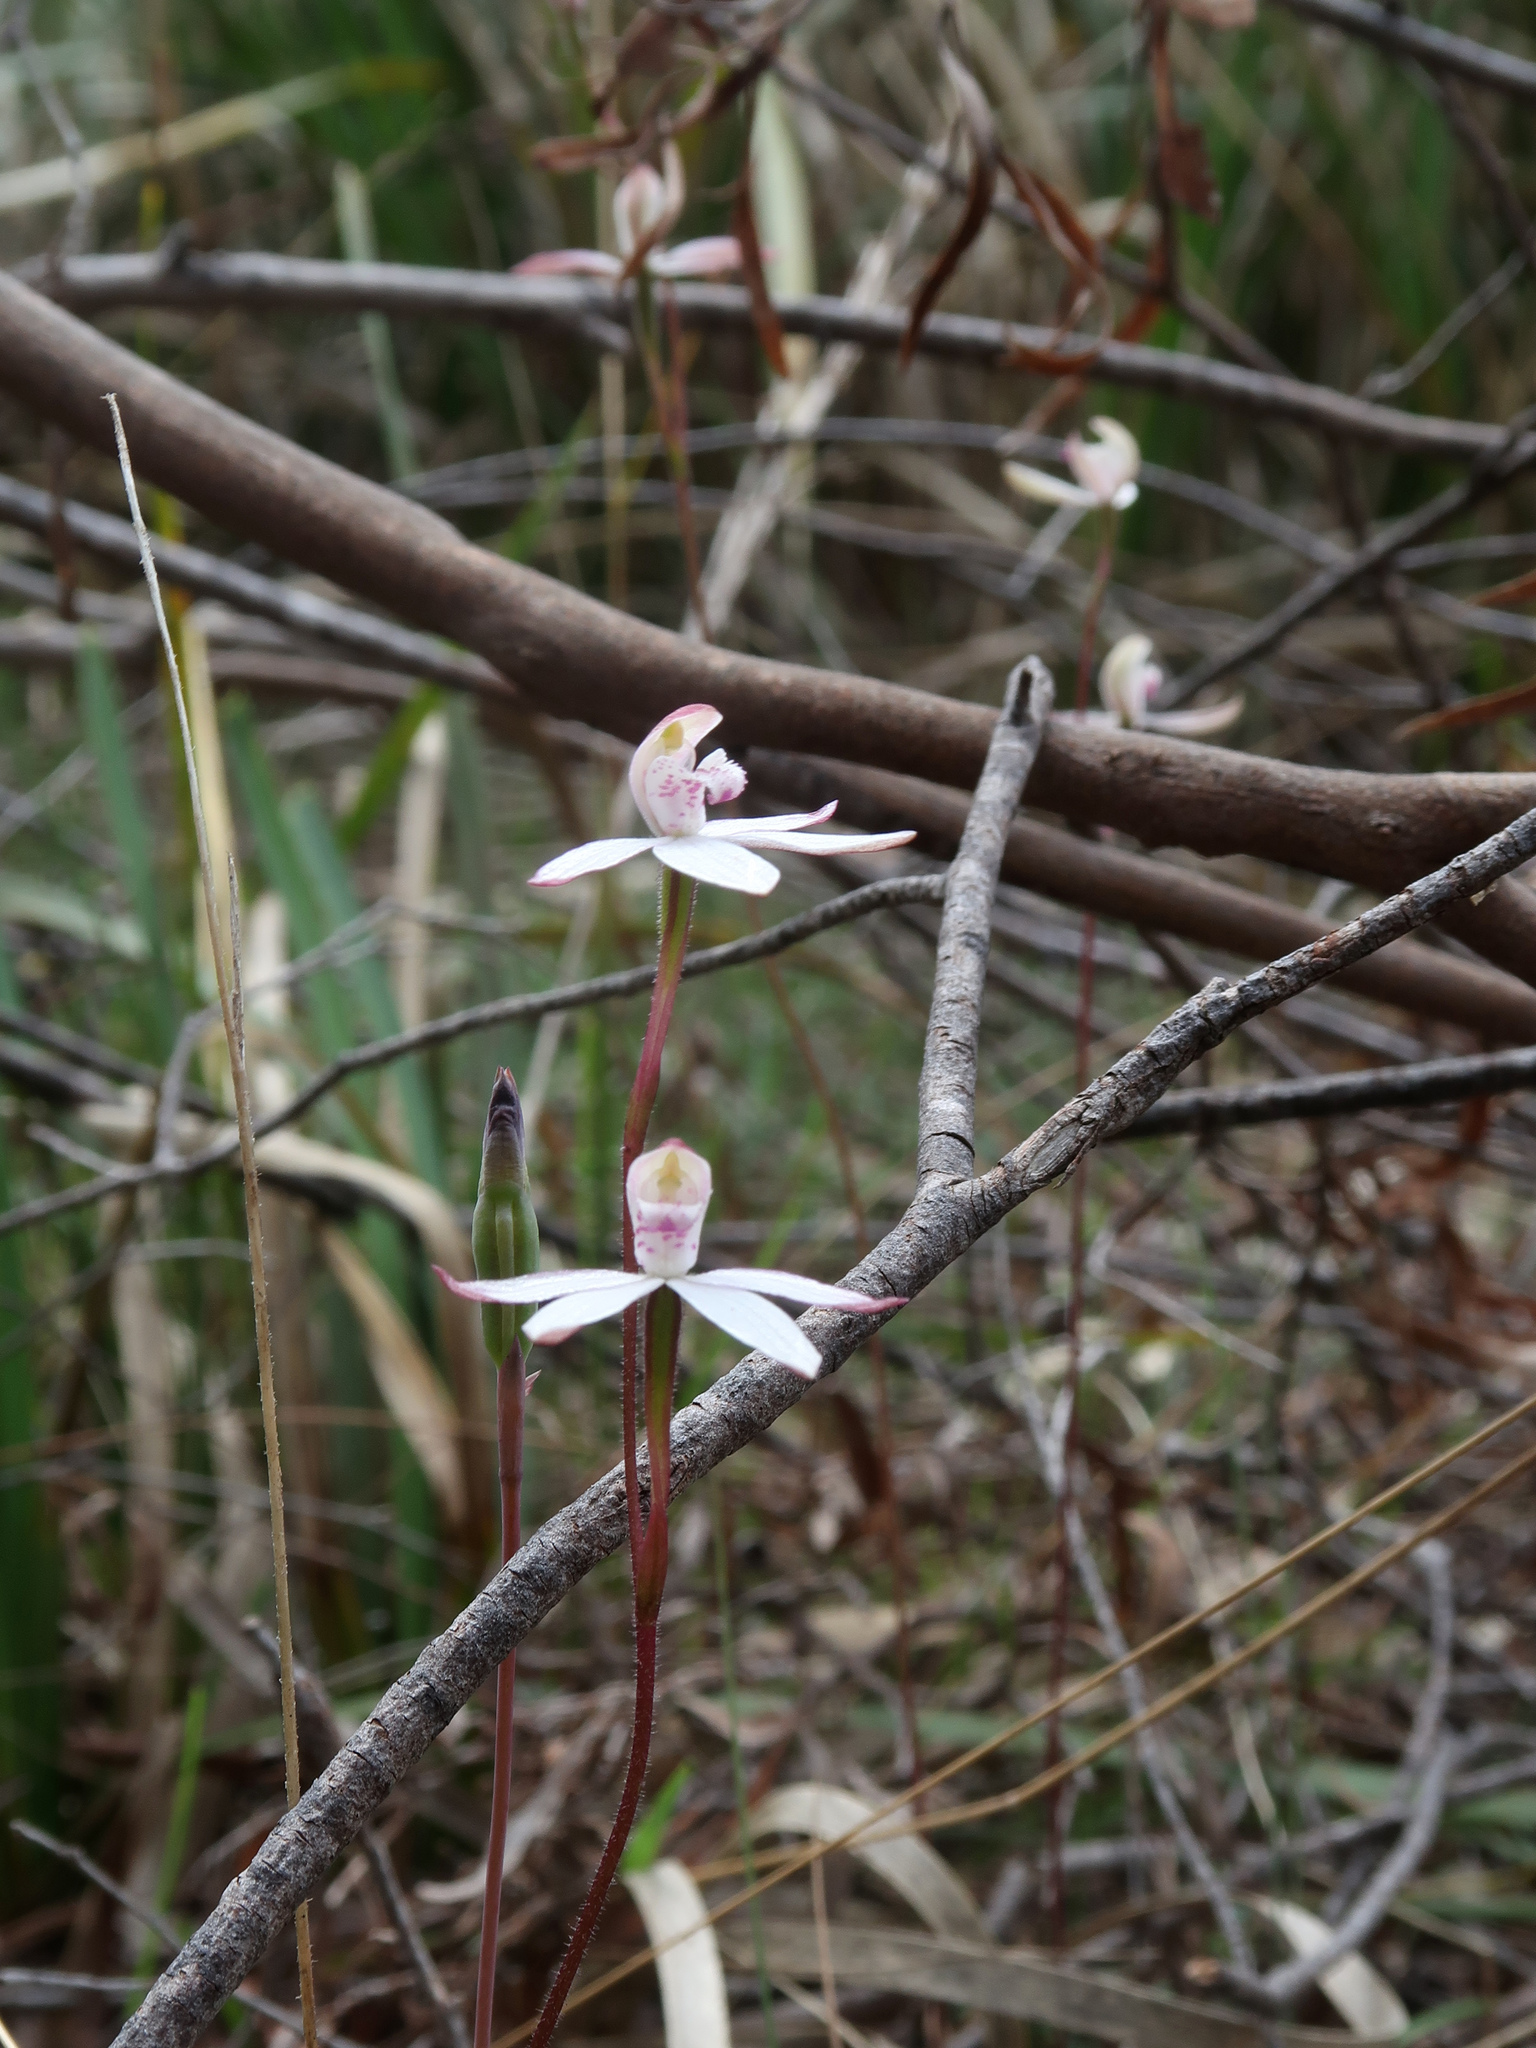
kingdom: Plantae
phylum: Tracheophyta
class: Liliopsida
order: Asparagales
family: Orchidaceae
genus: Caladenia
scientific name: Caladenia gracilis
